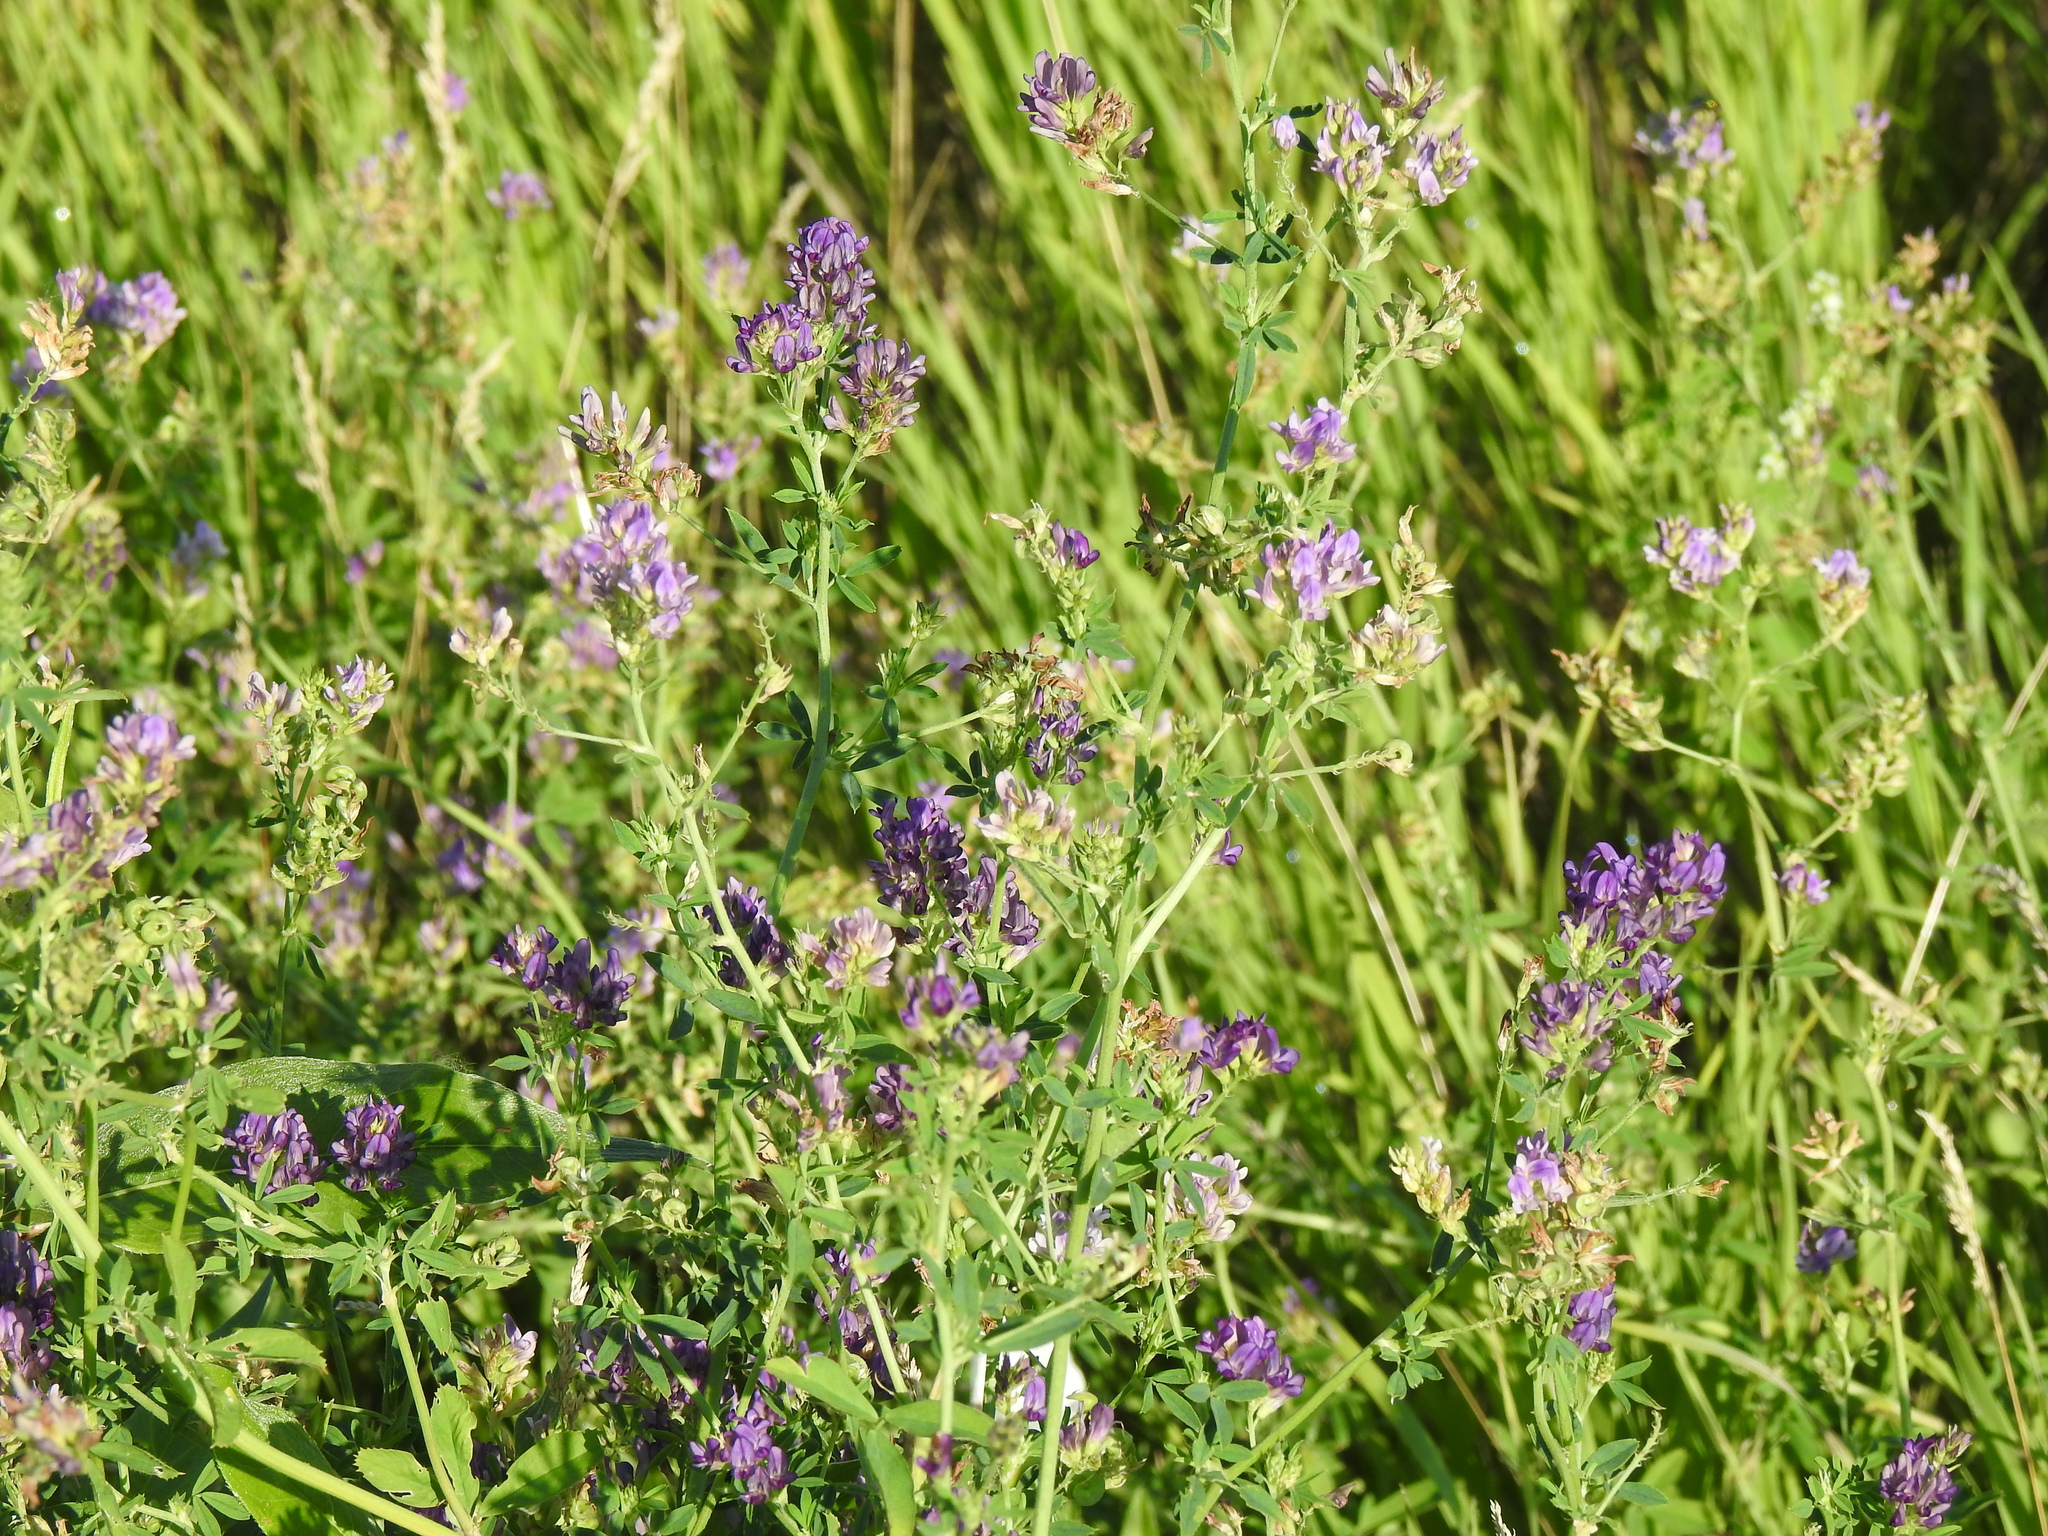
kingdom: Plantae
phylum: Tracheophyta
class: Magnoliopsida
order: Fabales
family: Fabaceae
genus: Medicago
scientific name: Medicago sativa
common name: Alfalfa
